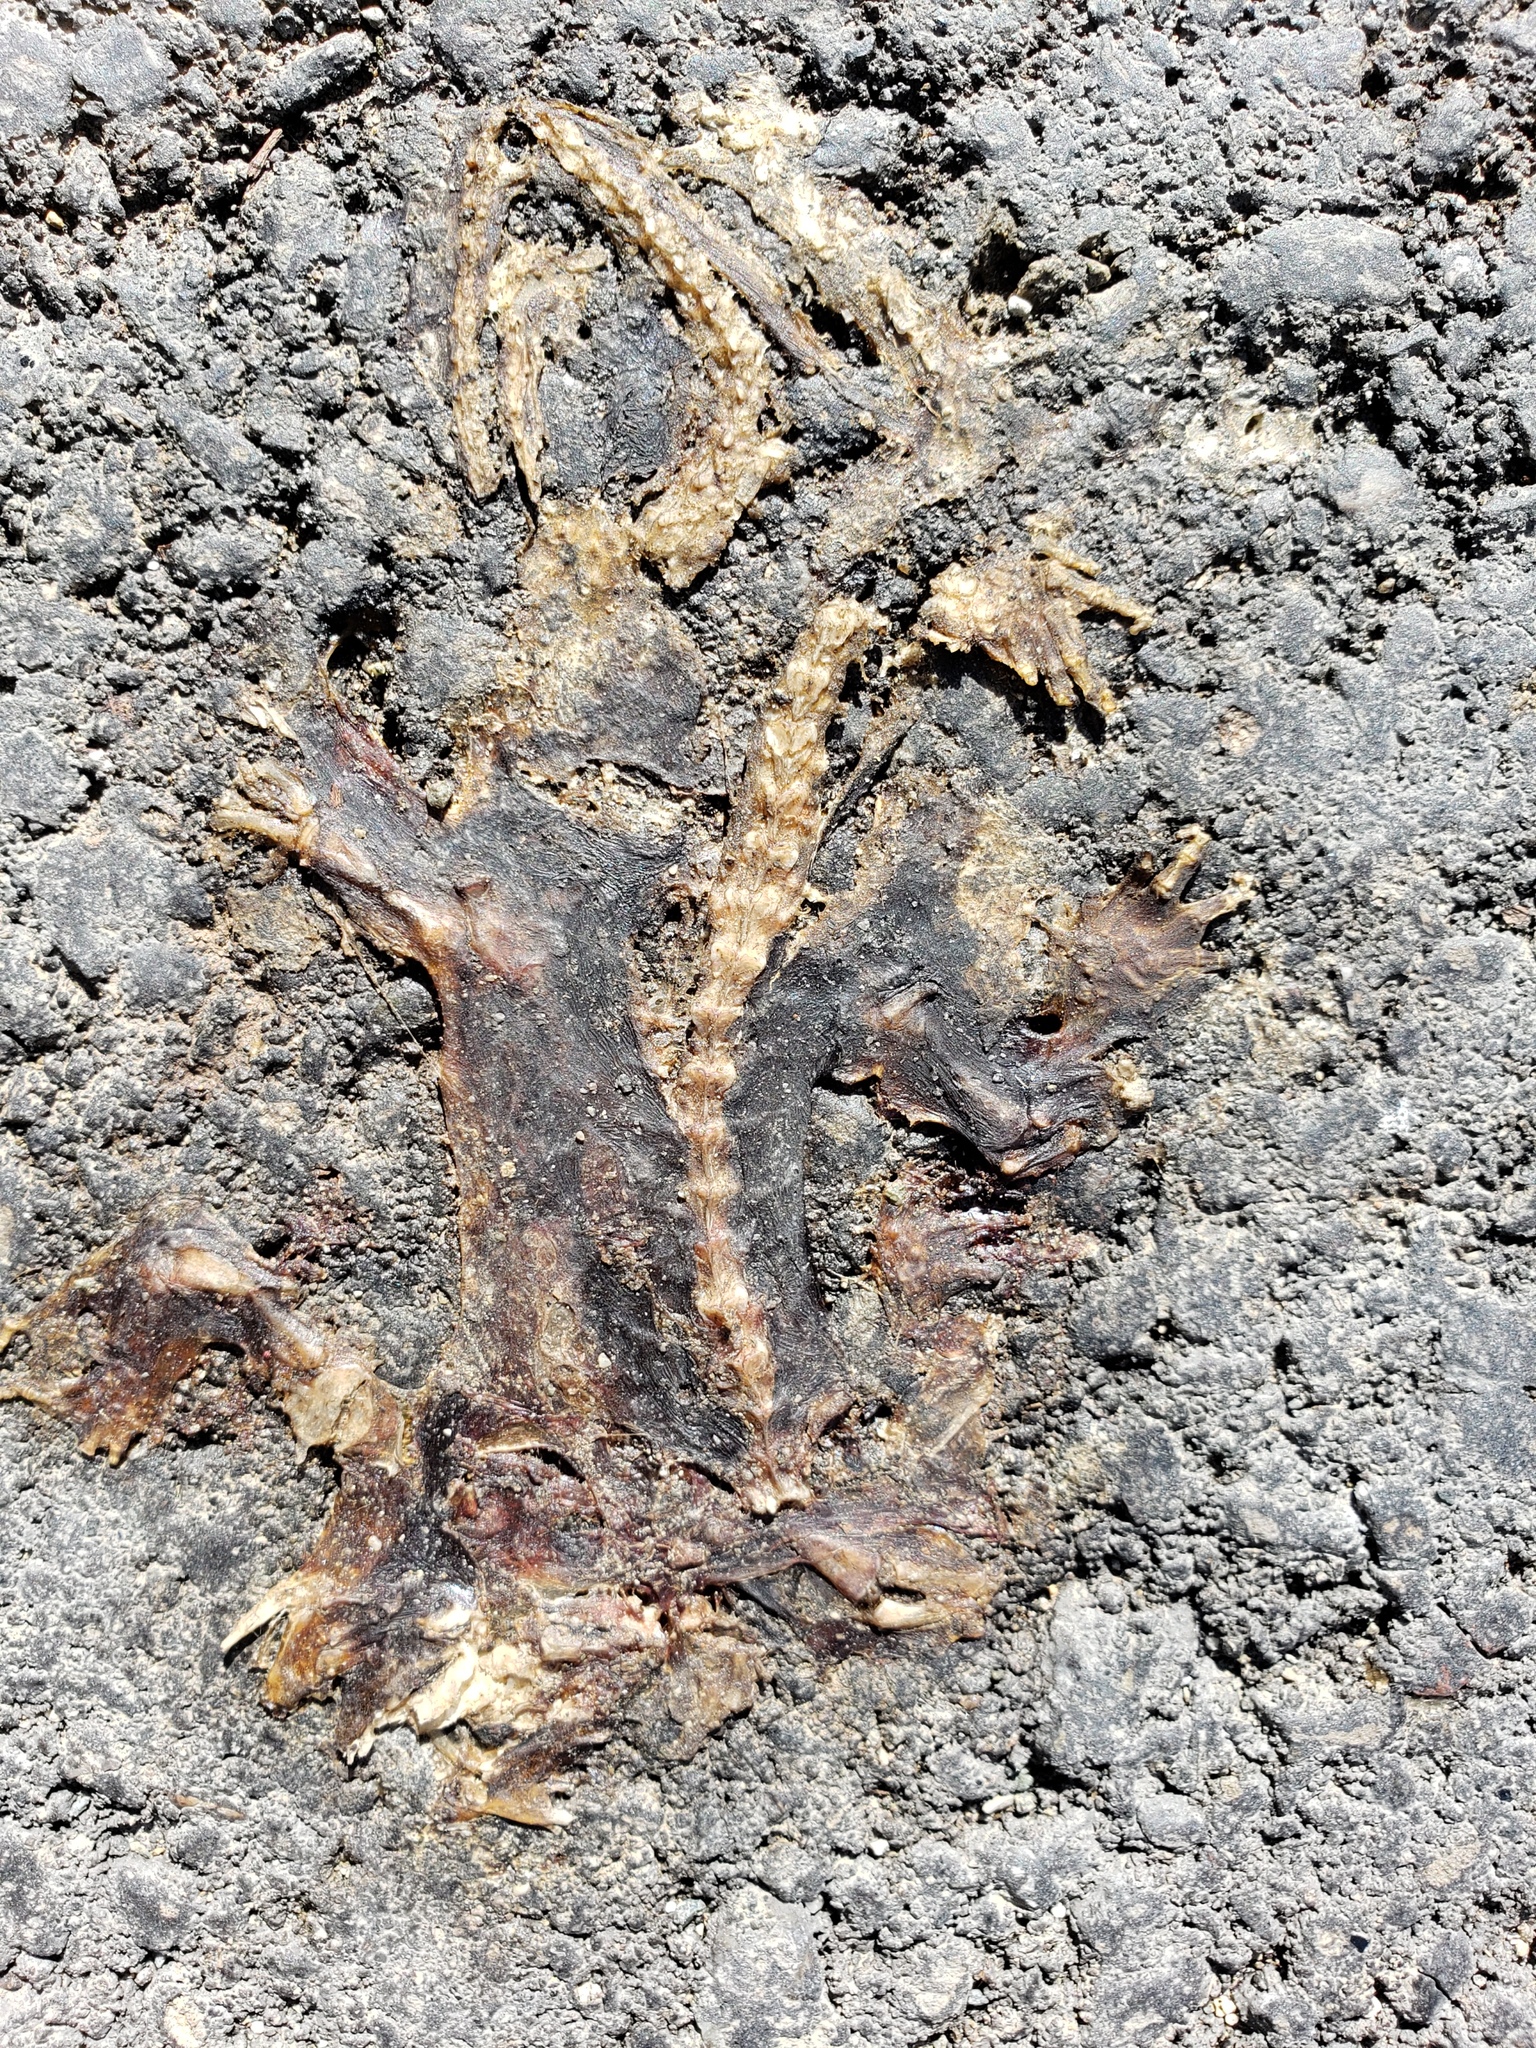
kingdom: Animalia
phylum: Chordata
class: Amphibia
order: Caudata
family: Salamandridae
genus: Taricha
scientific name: Taricha
